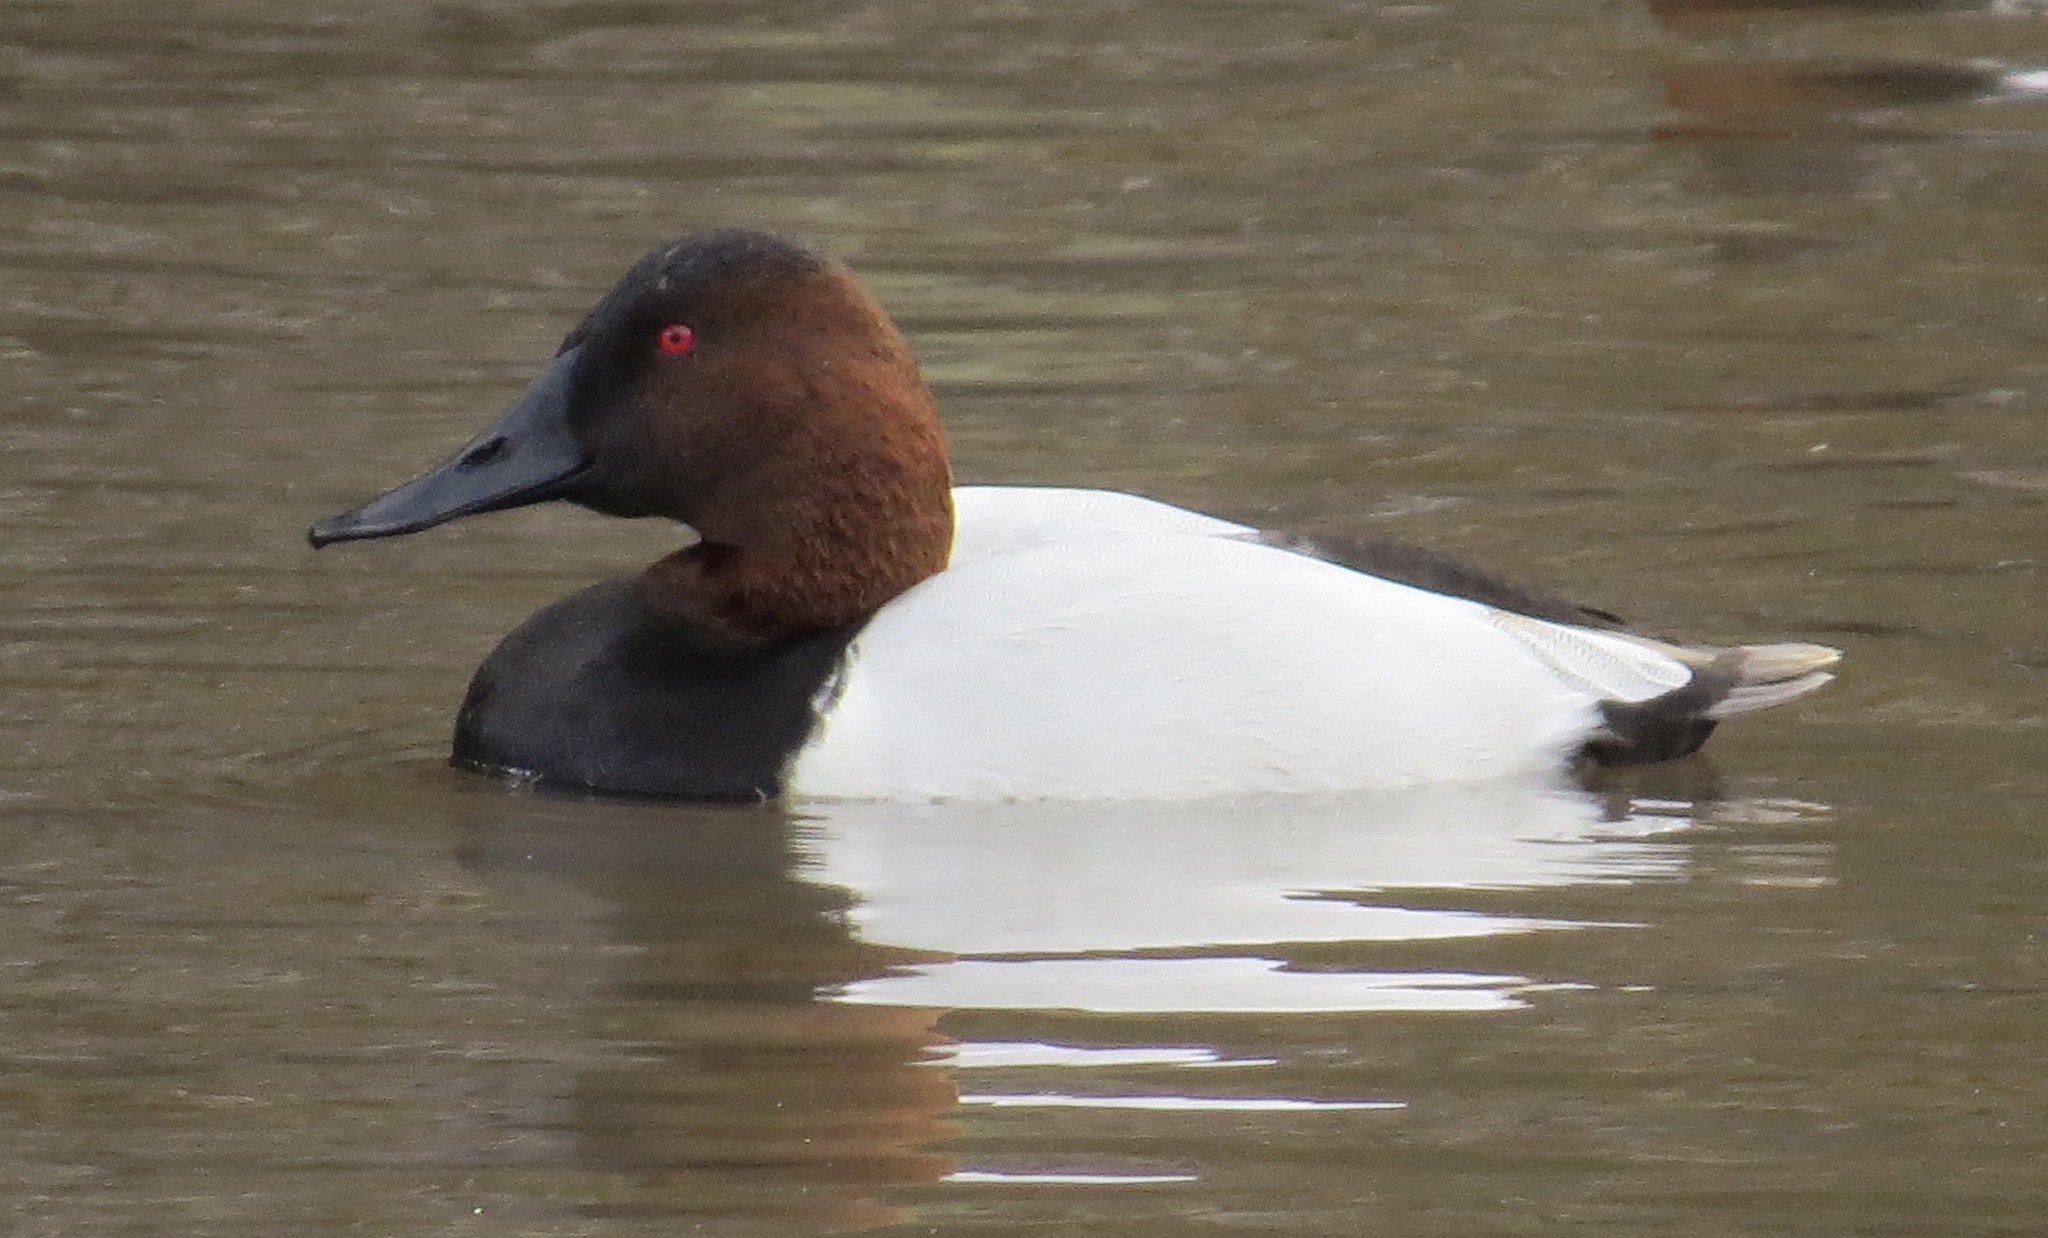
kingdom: Animalia
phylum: Chordata
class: Aves
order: Anseriformes
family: Anatidae
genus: Aythya
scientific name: Aythya valisineria
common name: Canvasback
